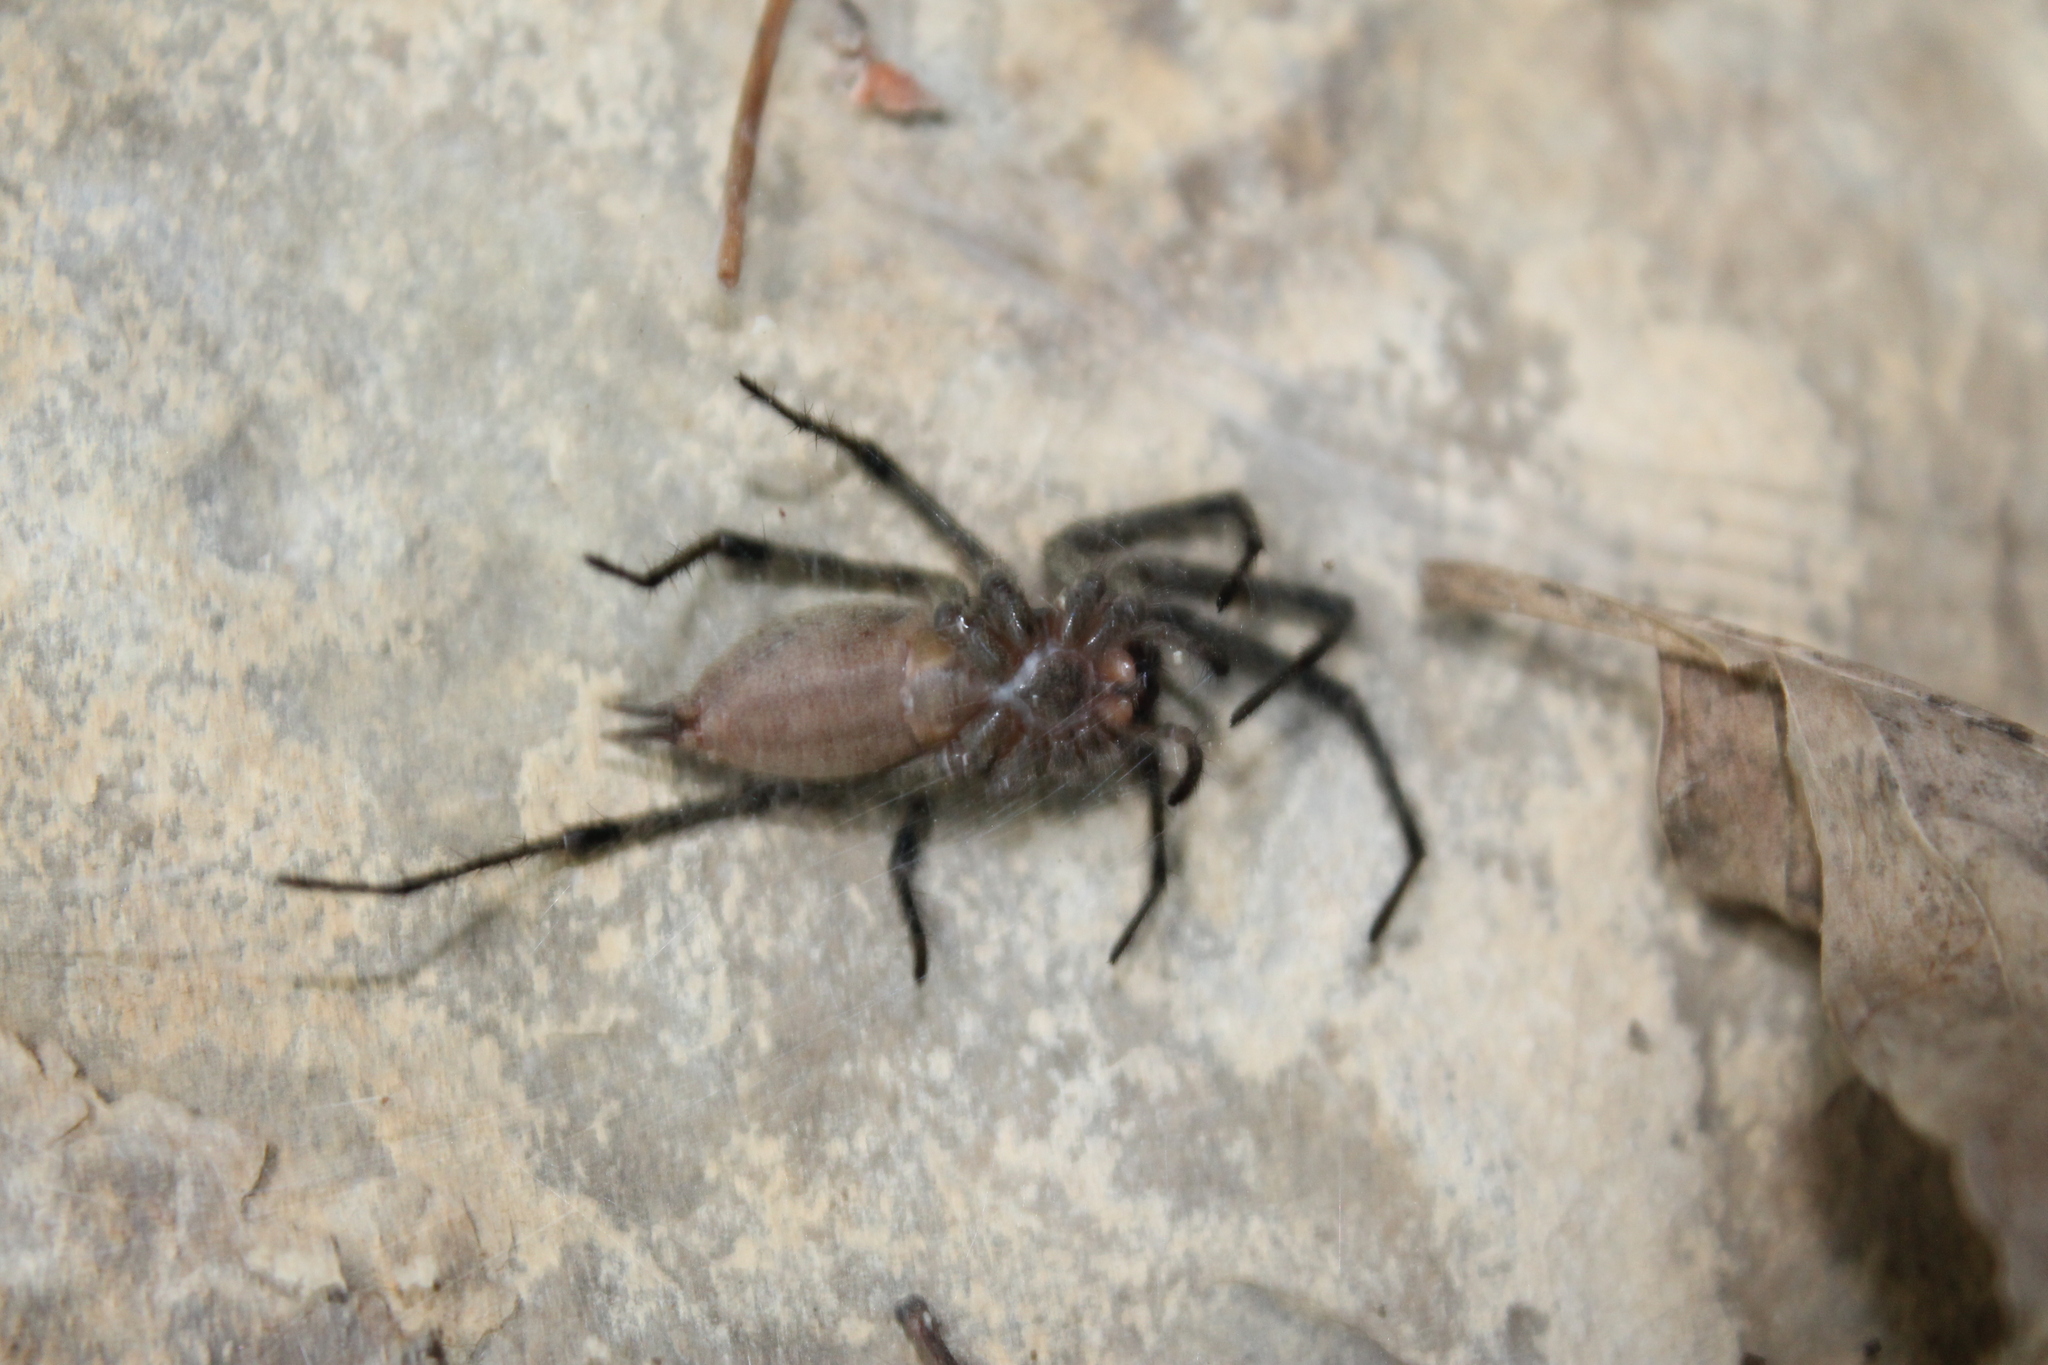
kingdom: Animalia
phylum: Arthropoda
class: Arachnida
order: Araneae
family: Agelenidae
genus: Agelenopsis
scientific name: Agelenopsis
